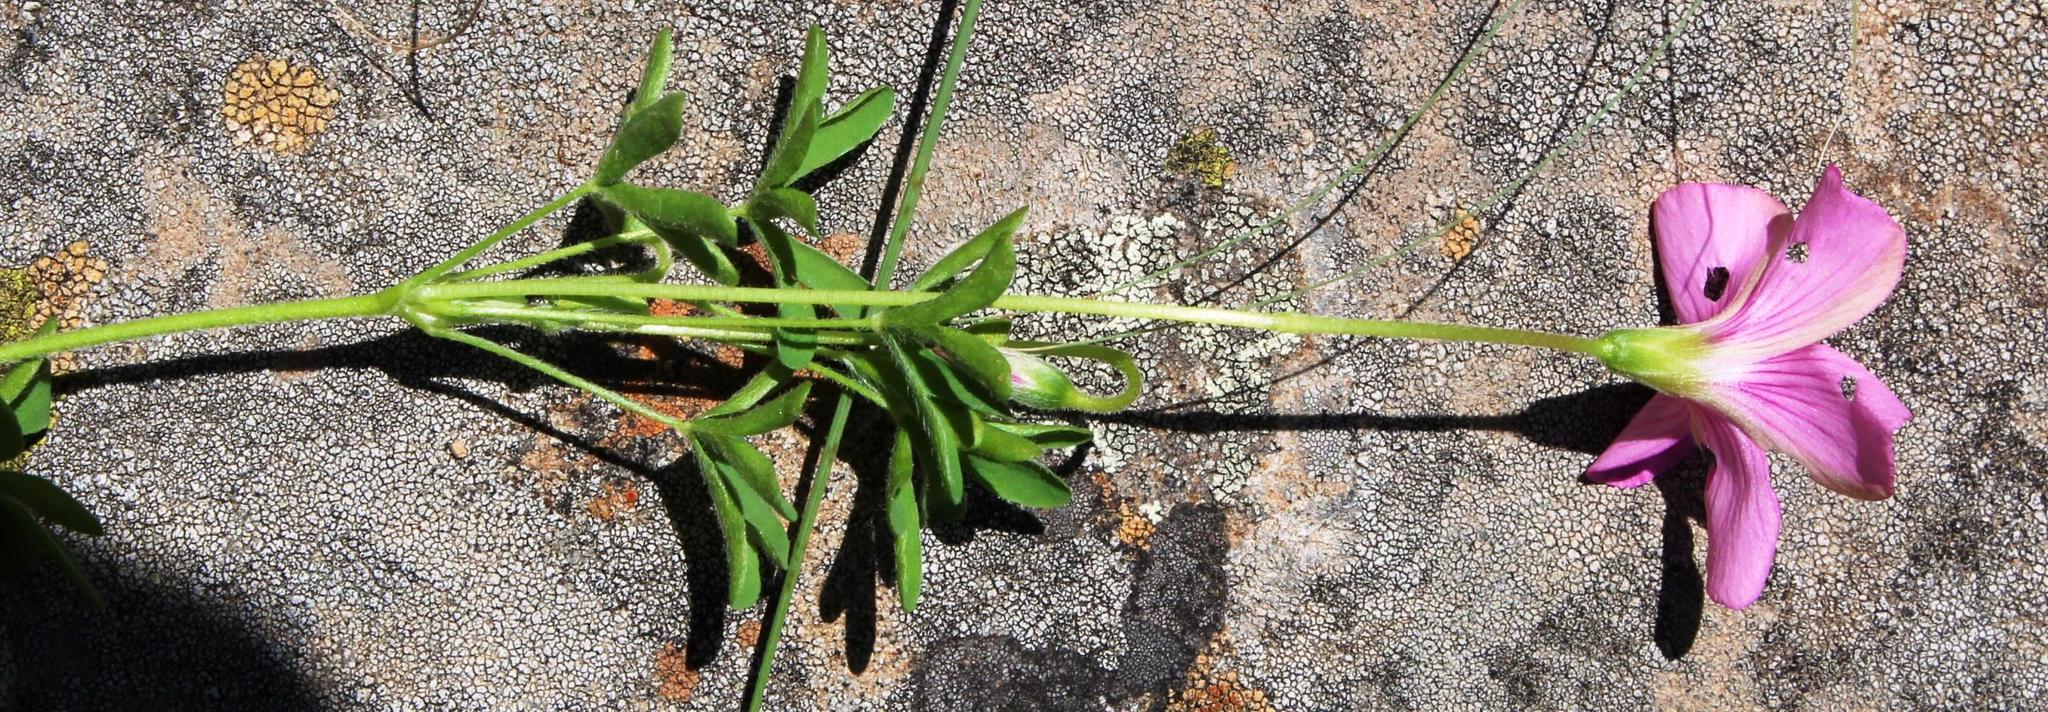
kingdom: Plantae
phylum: Tracheophyta
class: Magnoliopsida
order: Oxalidales
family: Oxalidaceae
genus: Oxalis
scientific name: Oxalis tysonii
